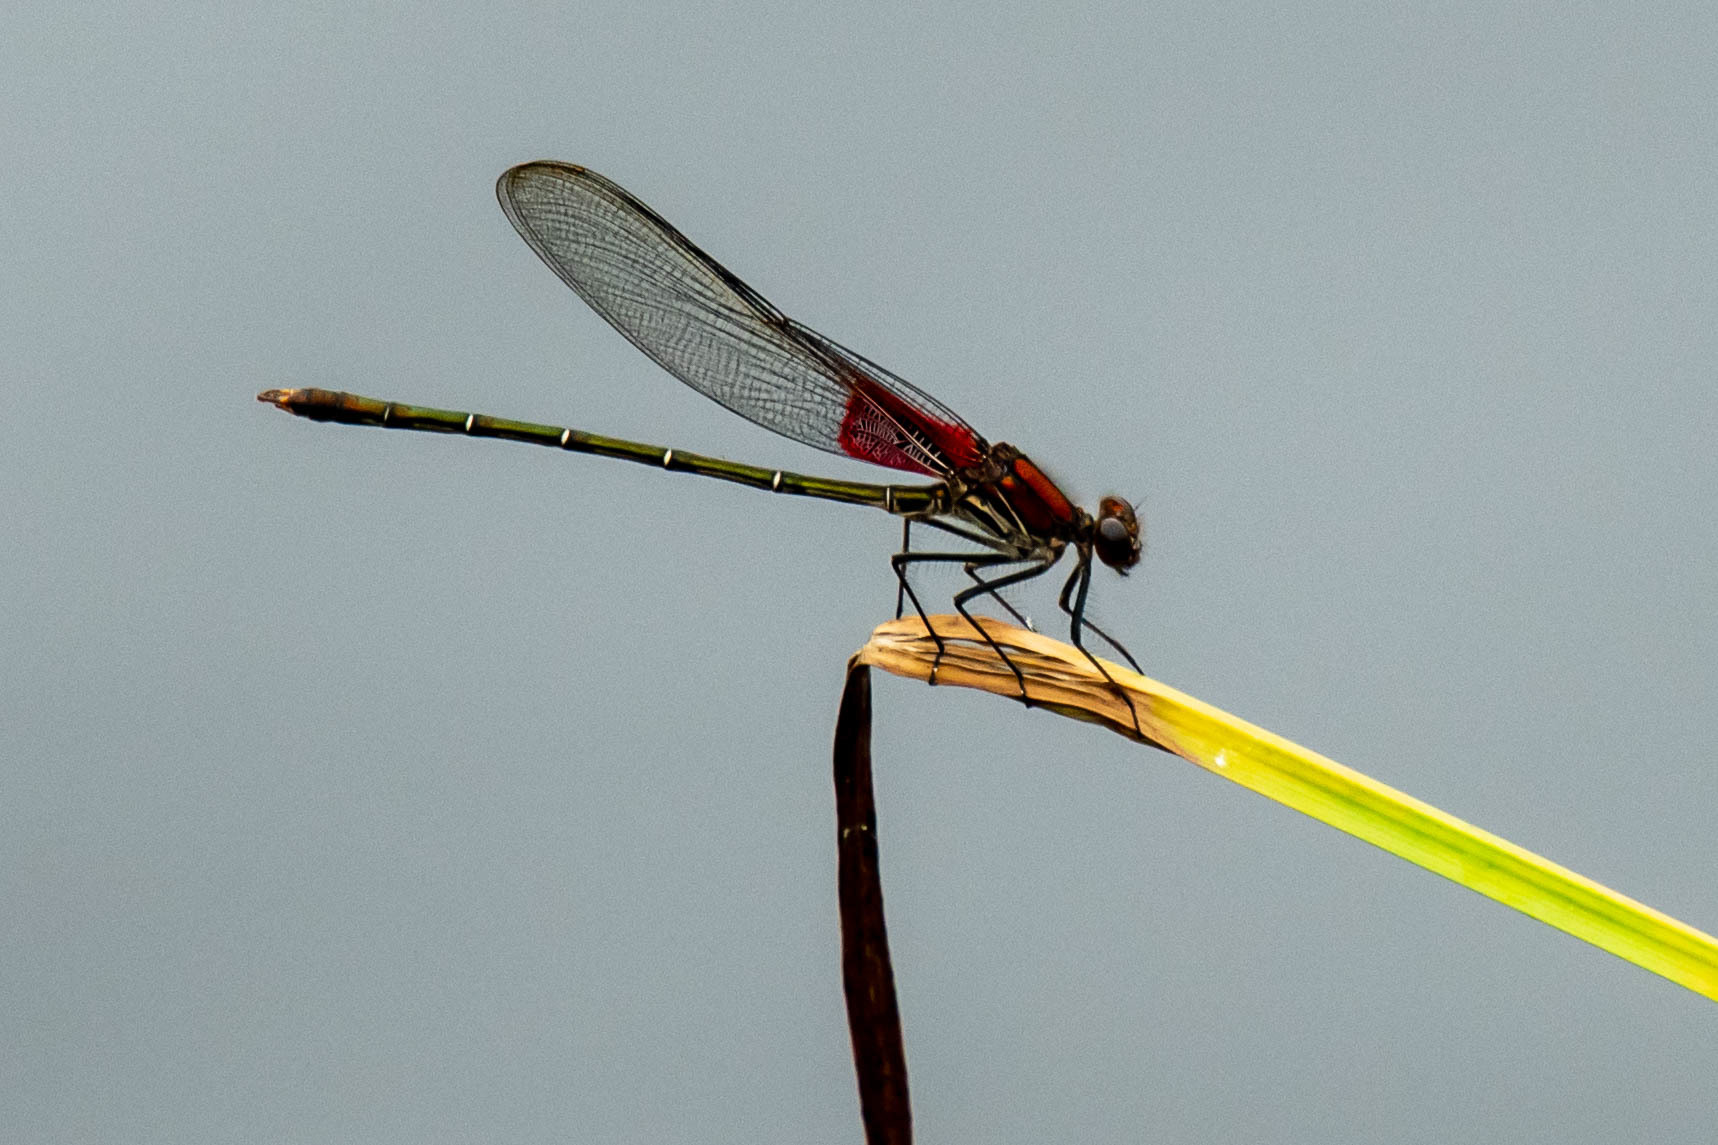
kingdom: Animalia
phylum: Arthropoda
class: Insecta
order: Odonata
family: Calopterygidae
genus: Hetaerina
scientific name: Hetaerina americana
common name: American rubyspot
